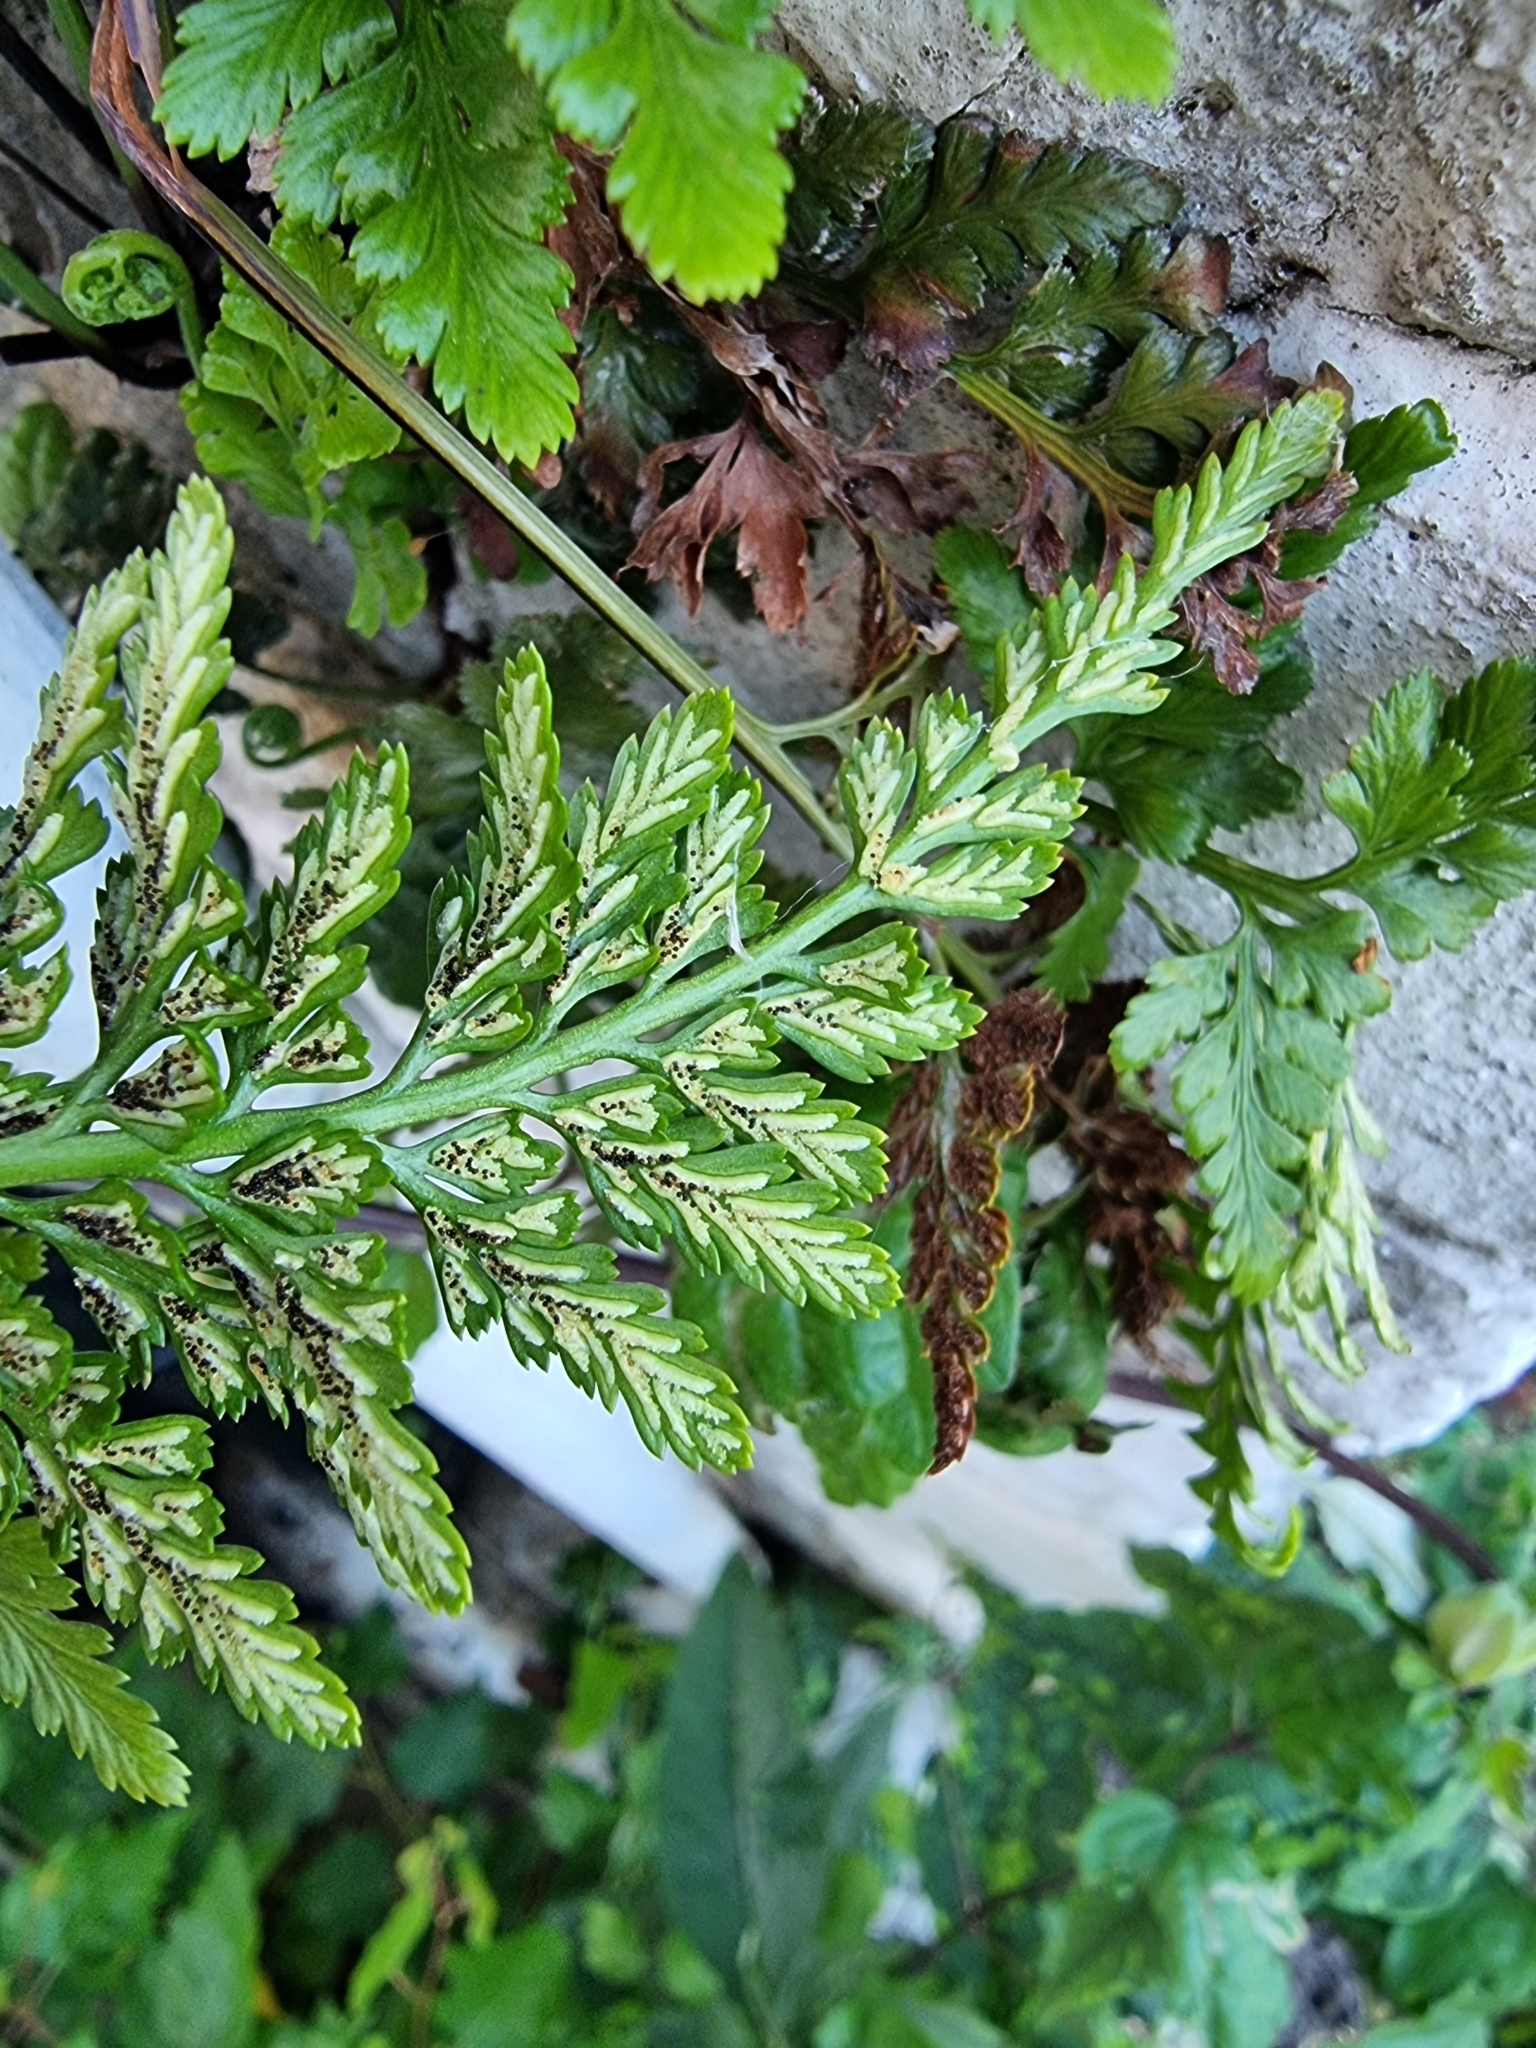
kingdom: Plantae
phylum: Tracheophyta
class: Polypodiopsida
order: Polypodiales
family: Aspleniaceae
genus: Asplenium
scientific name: Asplenium adiantum-nigrum
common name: Black spleenwort
